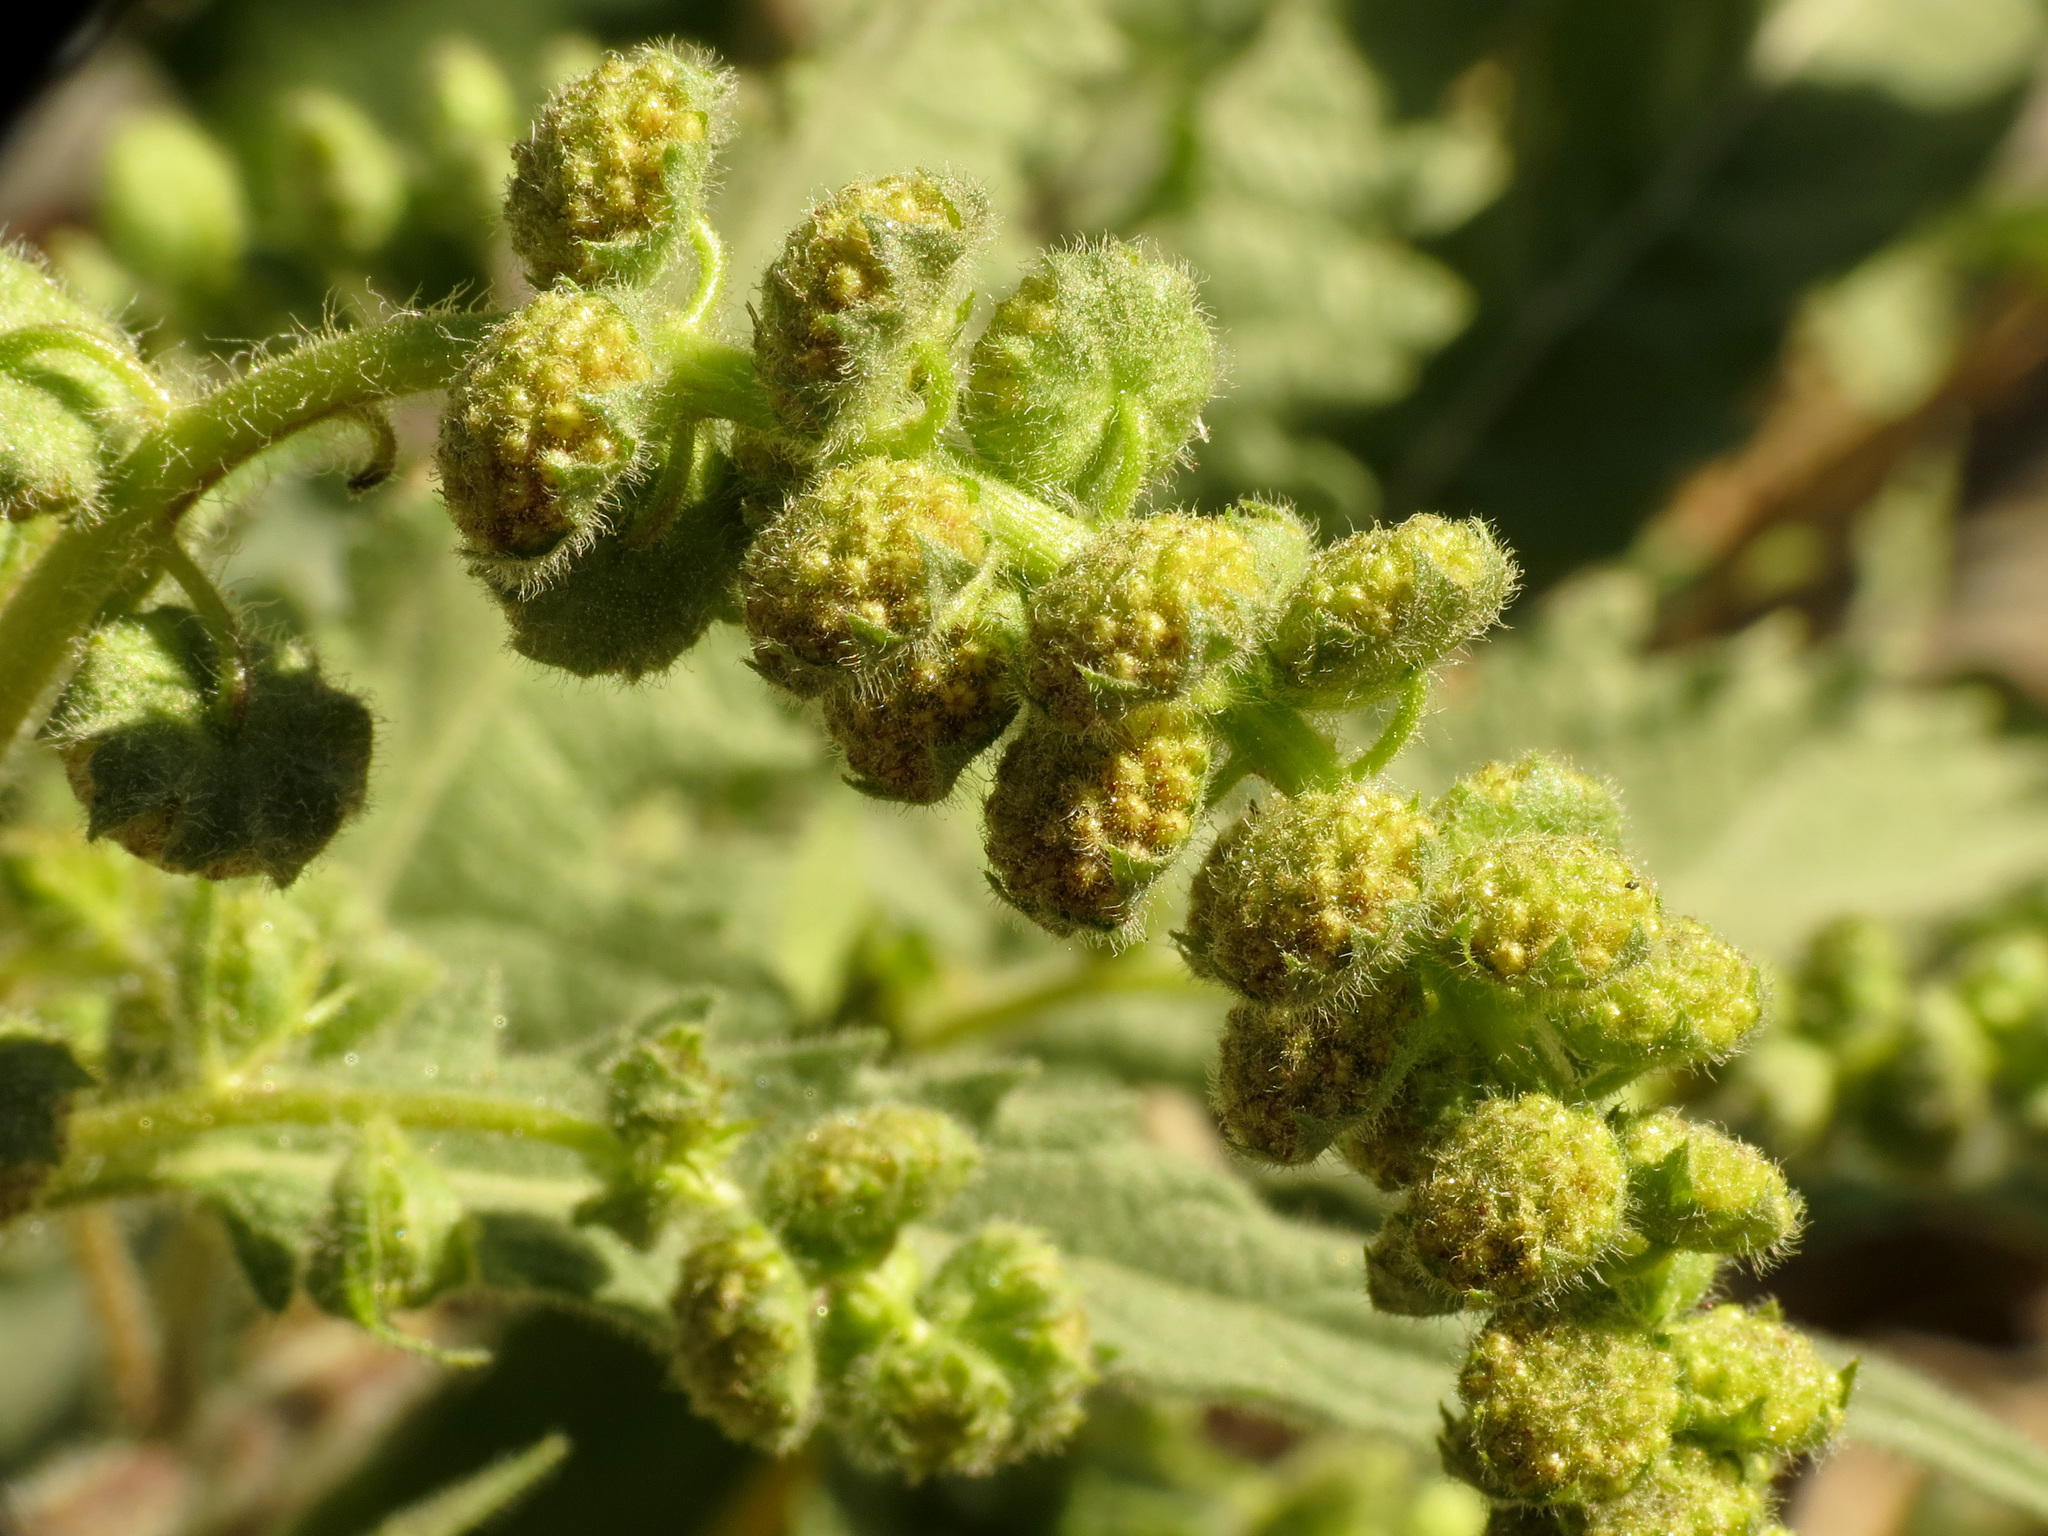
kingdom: Plantae
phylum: Tracheophyta
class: Magnoliopsida
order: Asterales
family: Asteraceae
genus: Ambrosia
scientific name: Ambrosia ambrosioides
